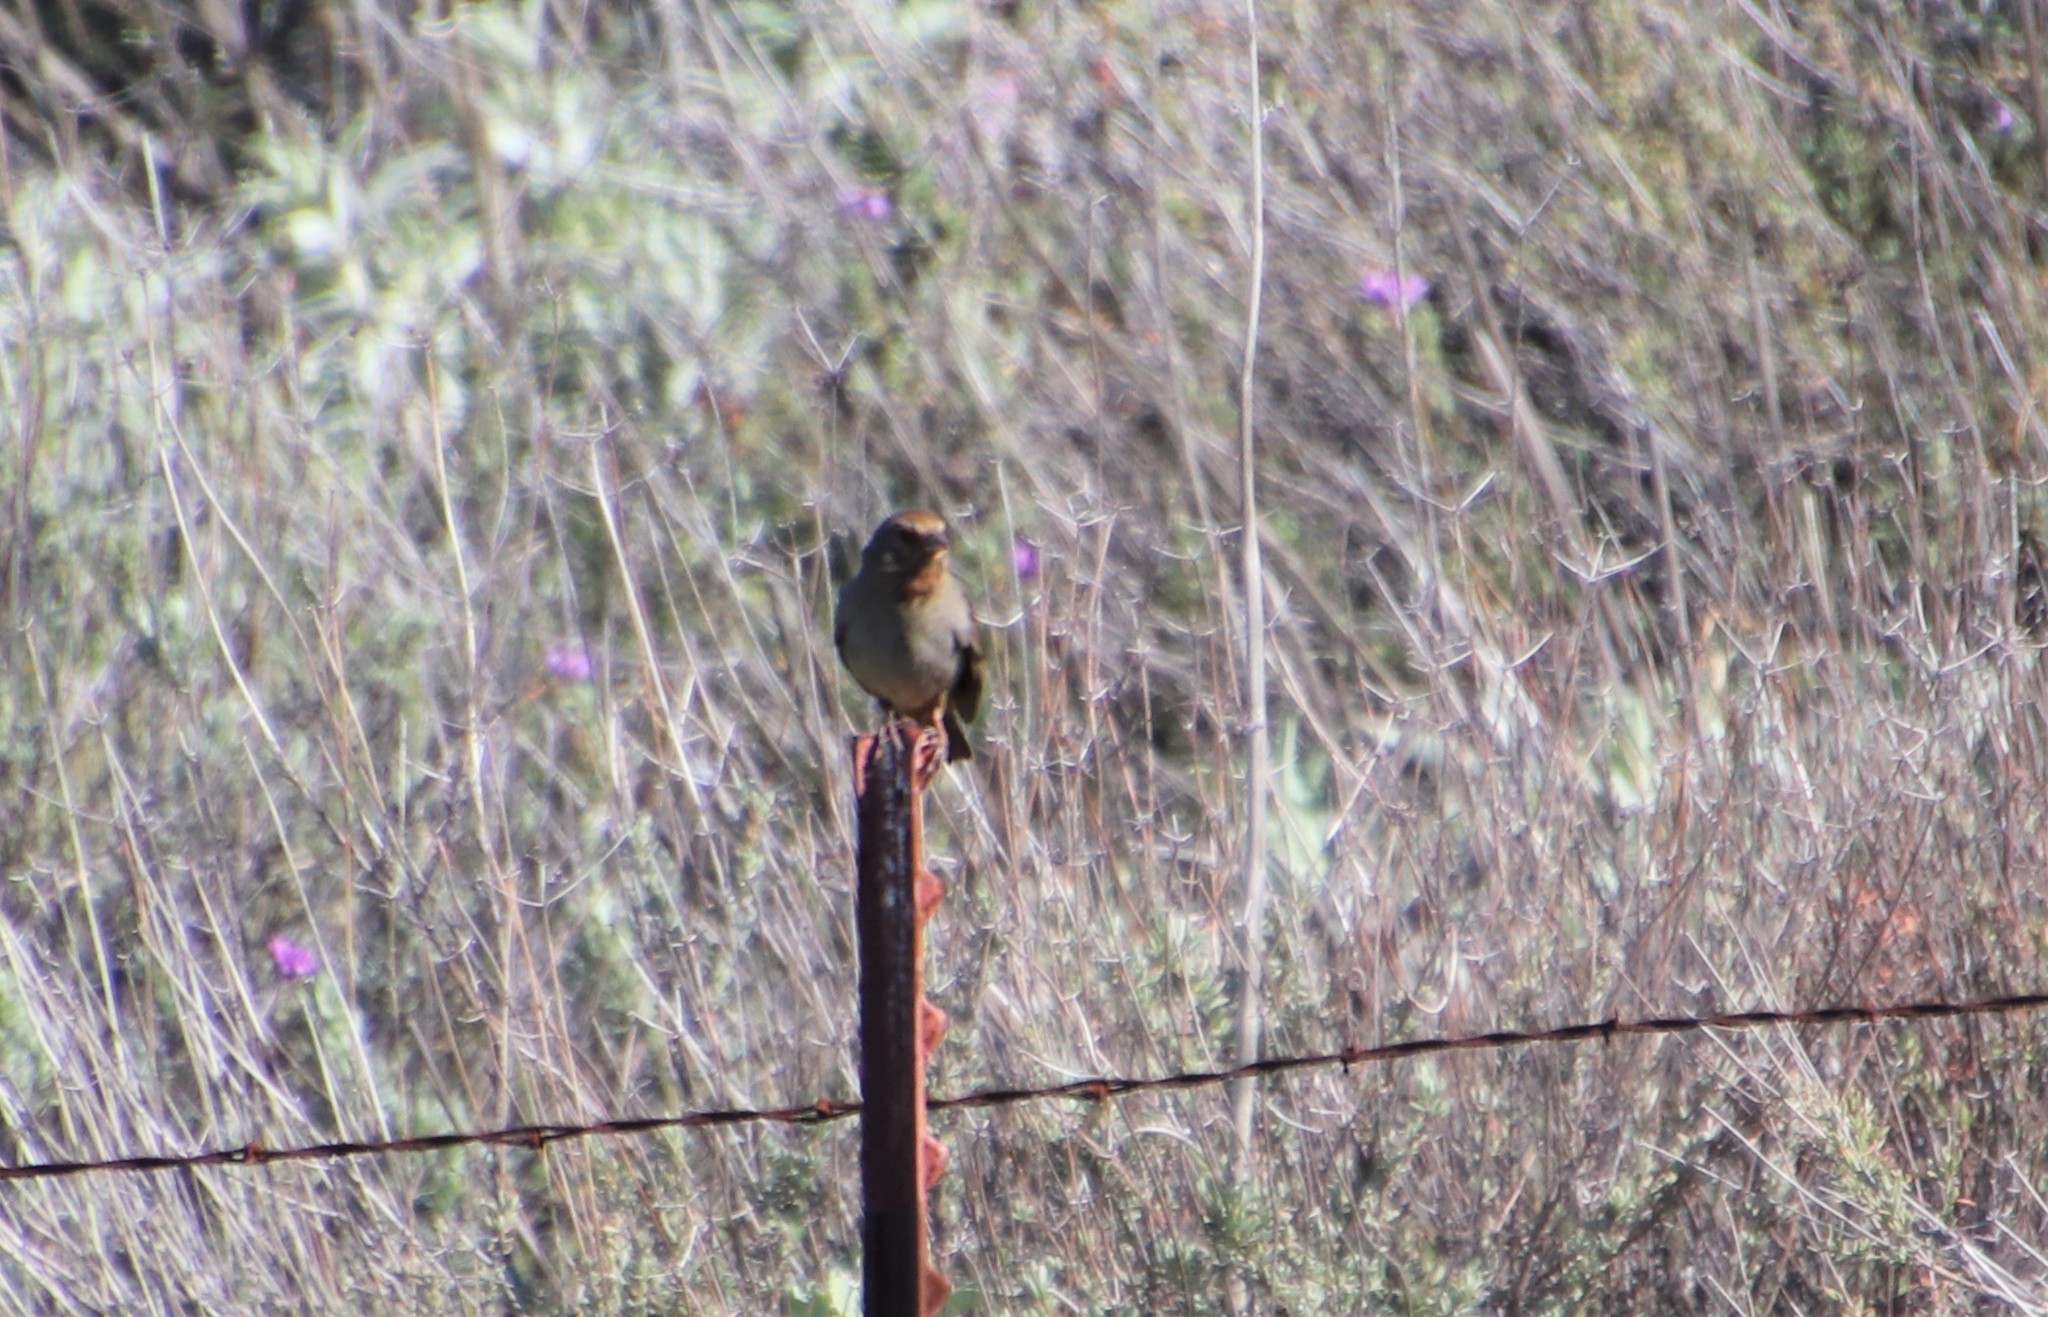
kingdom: Animalia
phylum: Chordata
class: Aves
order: Passeriformes
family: Passerellidae
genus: Melozone
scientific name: Melozone crissalis
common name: California towhee
